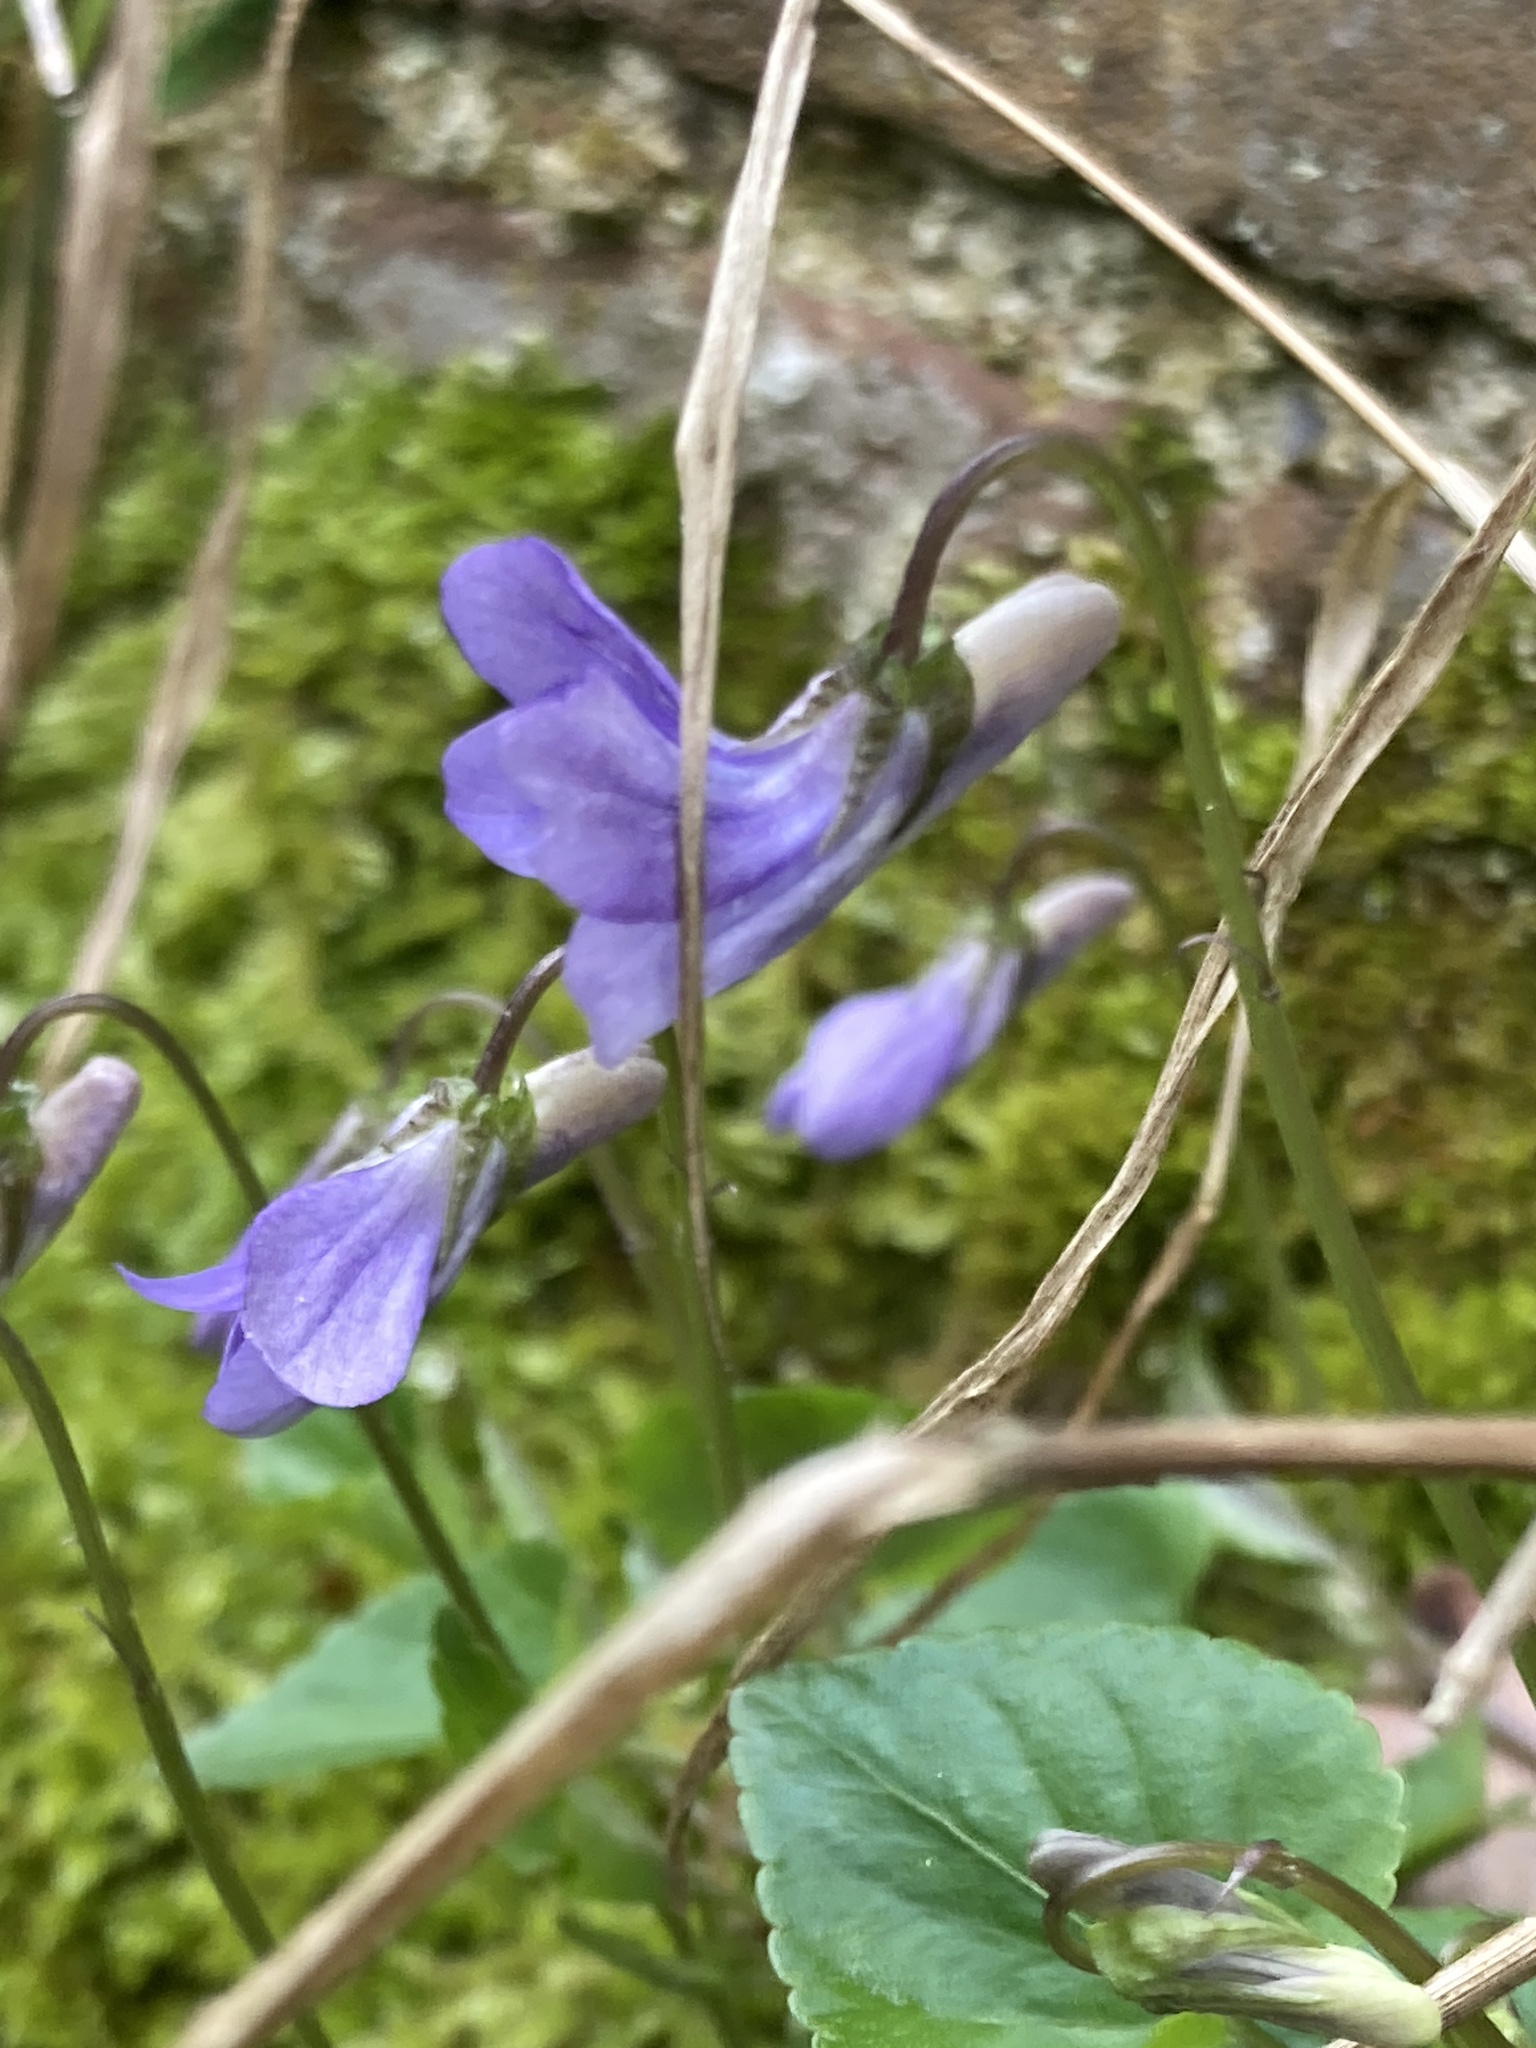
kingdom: Plantae
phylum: Tracheophyta
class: Magnoliopsida
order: Malpighiales
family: Violaceae
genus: Viola
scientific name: Viola riviniana
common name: Common dog-violet
